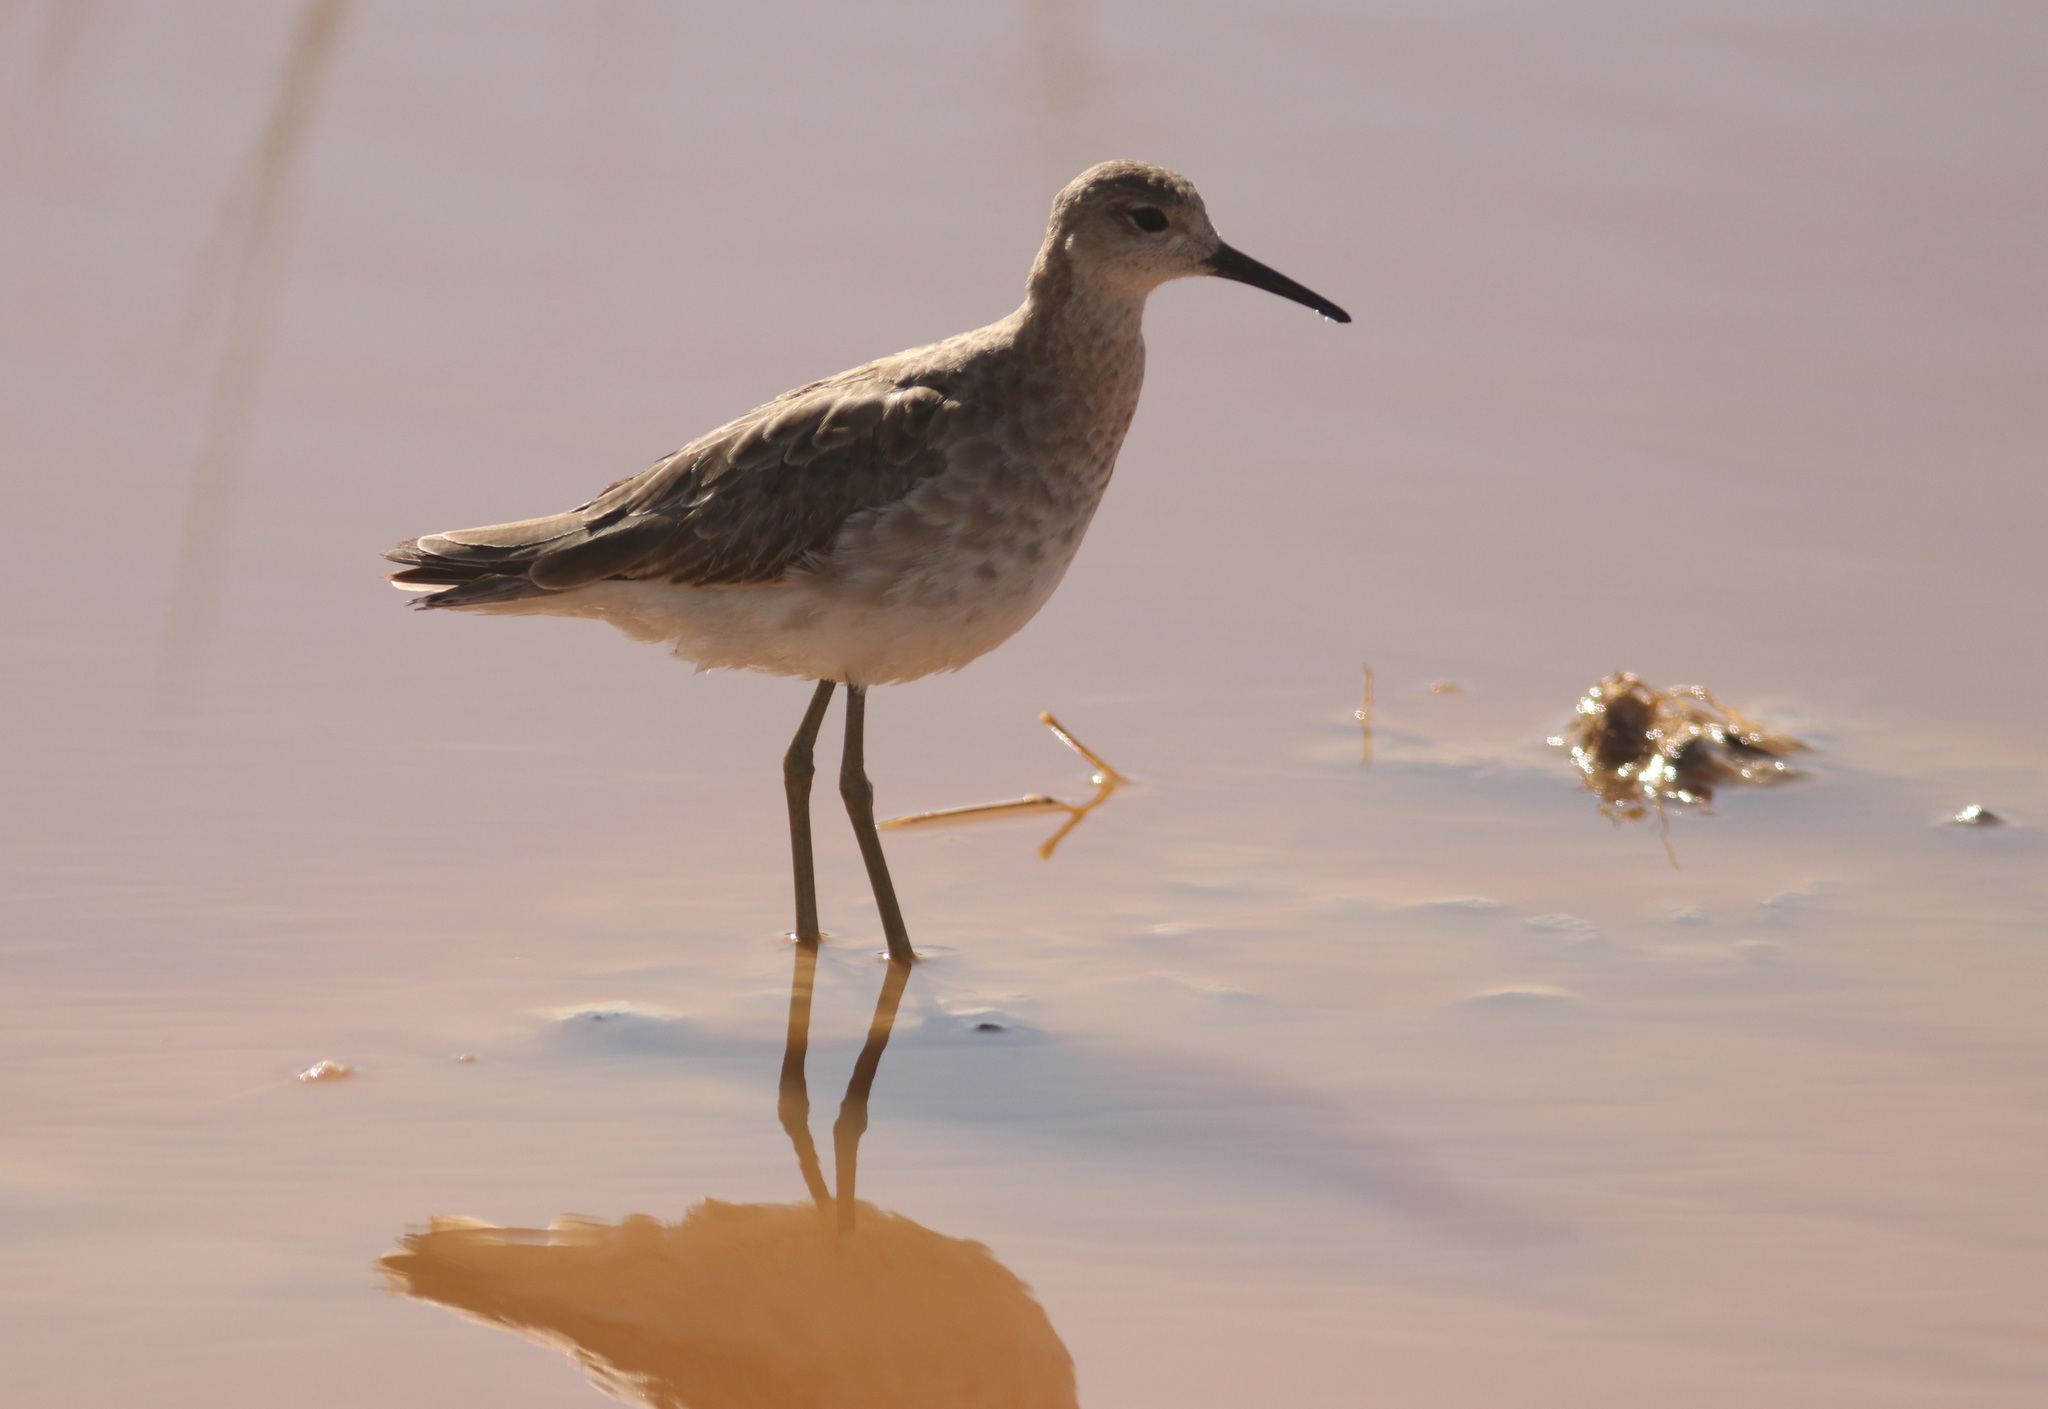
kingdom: Animalia
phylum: Chordata
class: Aves
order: Charadriiformes
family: Scolopacidae
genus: Calidris
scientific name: Calidris pugnax
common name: Ruff
